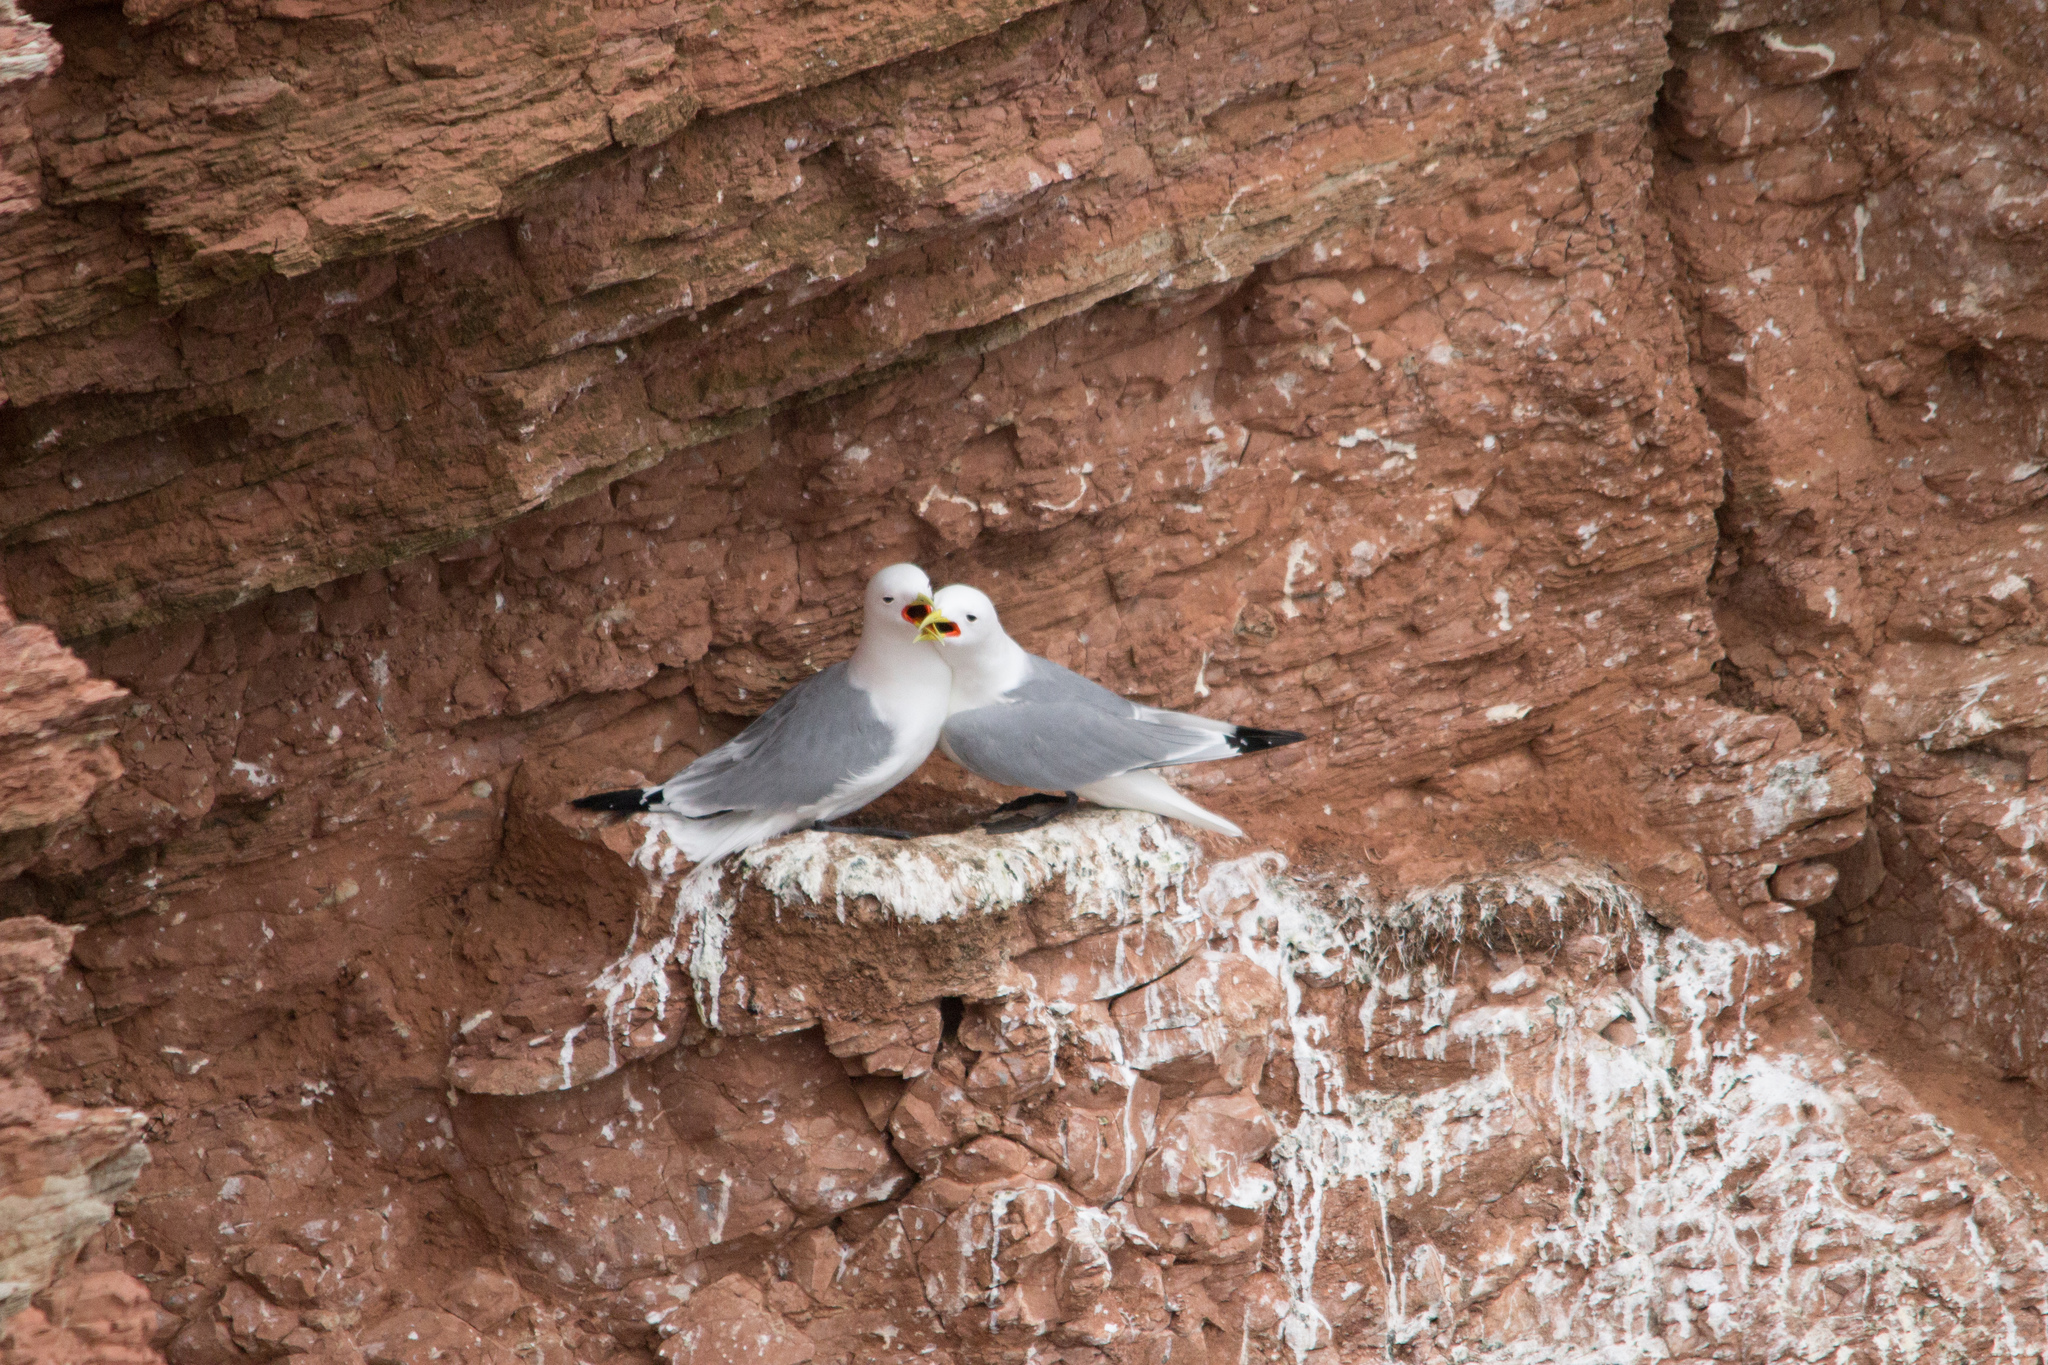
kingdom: Animalia
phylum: Chordata
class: Aves
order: Charadriiformes
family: Laridae
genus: Rissa
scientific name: Rissa tridactyla
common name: Black-legged kittiwake
